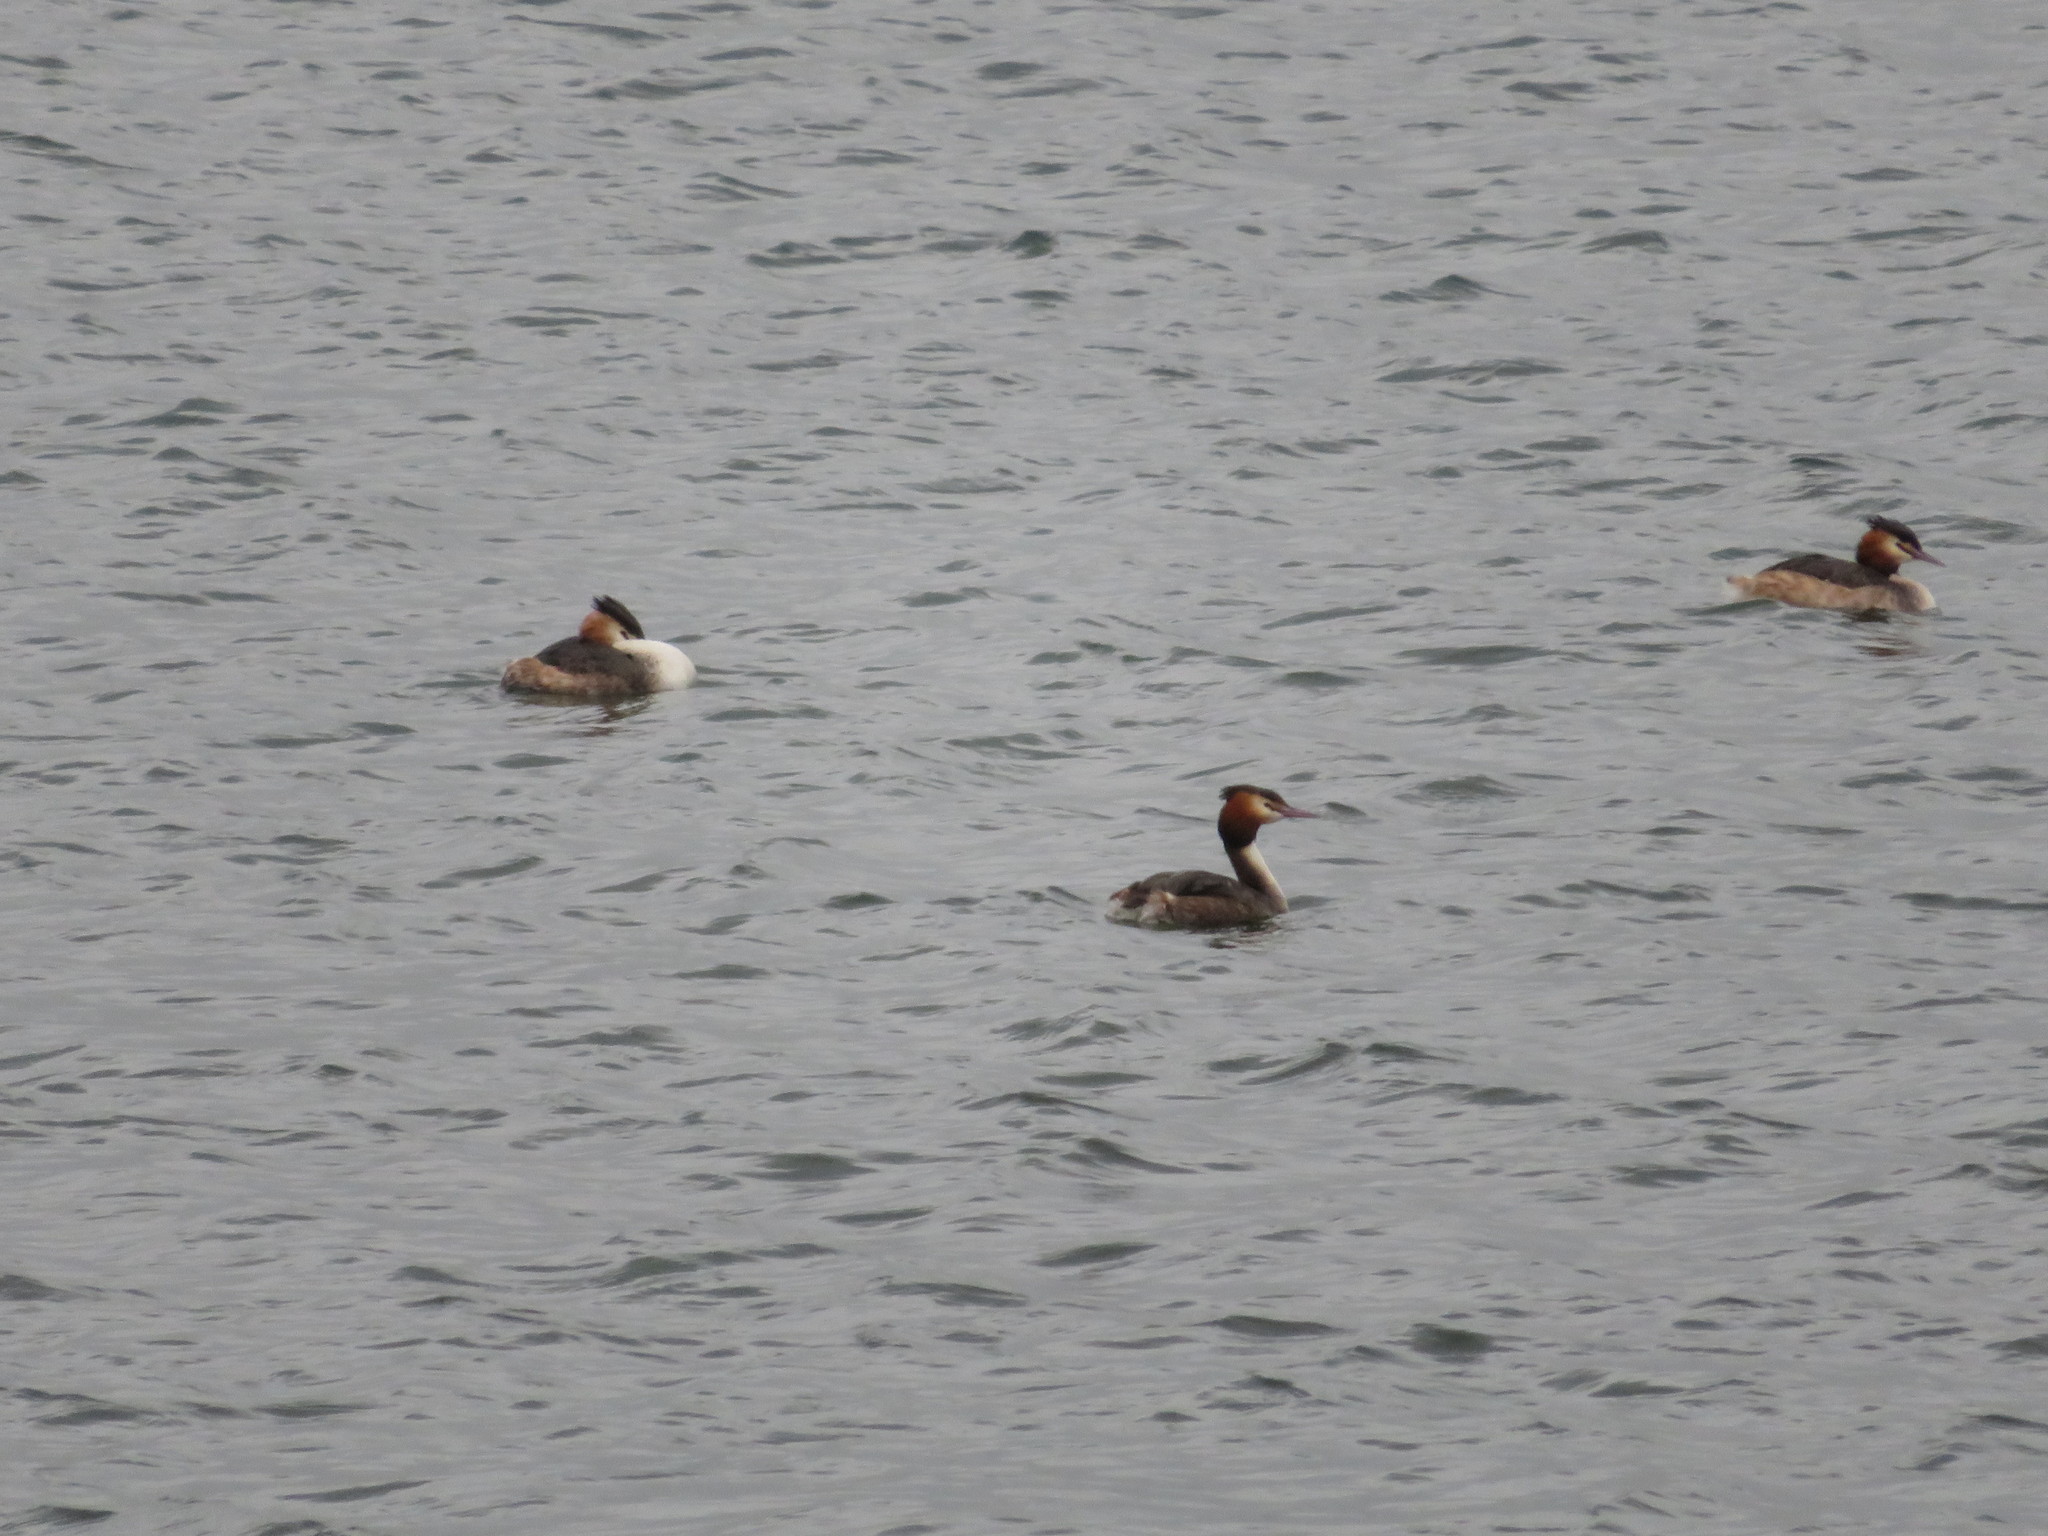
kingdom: Animalia
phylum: Chordata
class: Aves
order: Podicipediformes
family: Podicipedidae
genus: Podiceps
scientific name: Podiceps cristatus
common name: Great crested grebe
